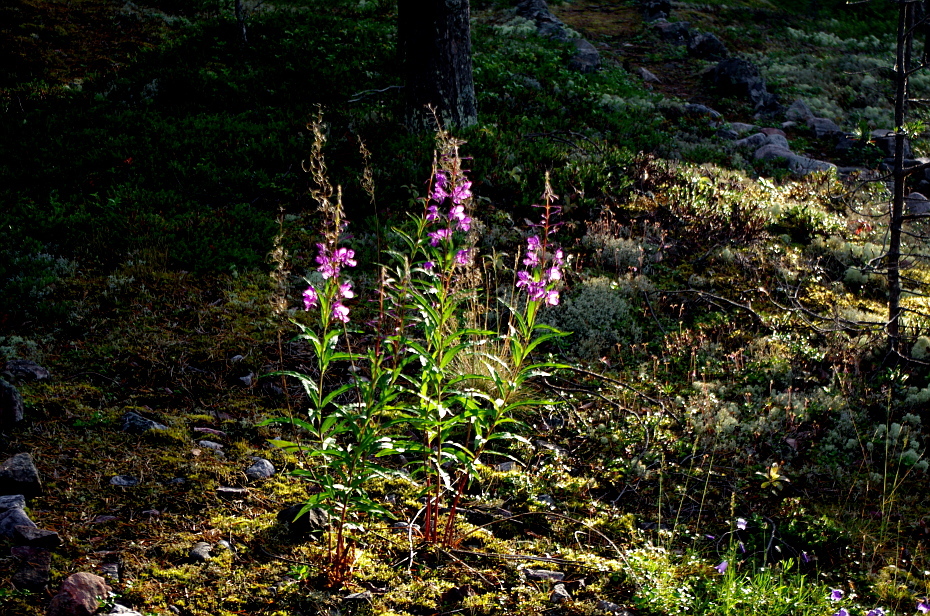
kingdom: Plantae
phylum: Tracheophyta
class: Magnoliopsida
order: Myrtales
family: Onagraceae
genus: Chamaenerion
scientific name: Chamaenerion angustifolium
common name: Fireweed
